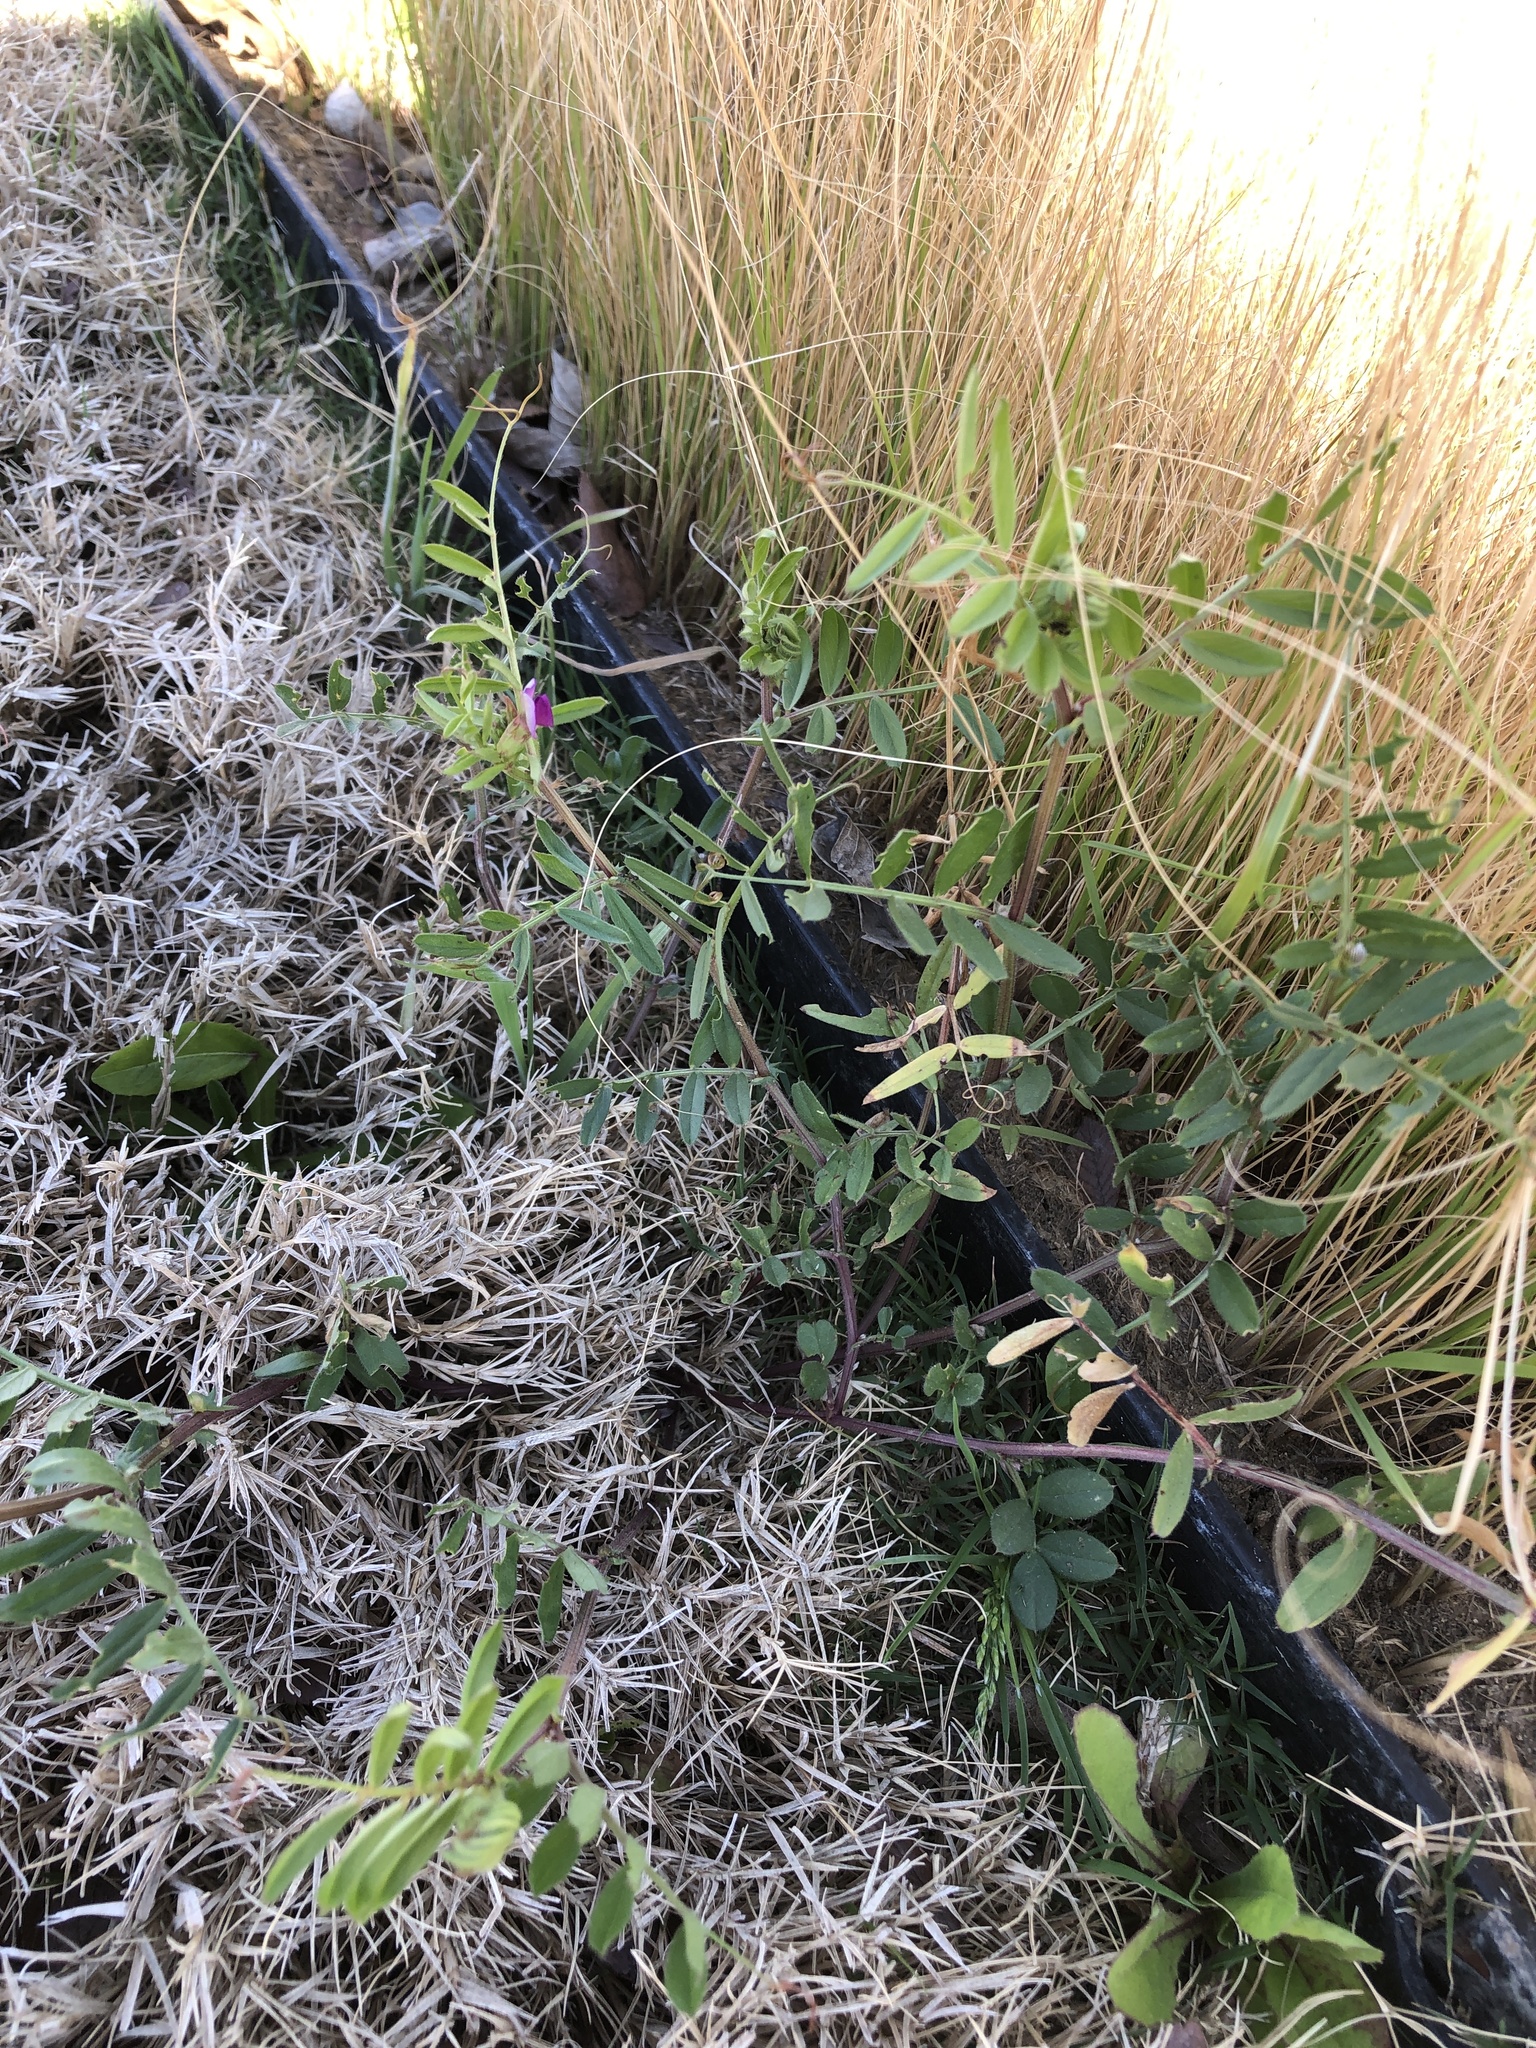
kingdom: Plantae
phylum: Tracheophyta
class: Magnoliopsida
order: Fabales
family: Fabaceae
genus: Vicia
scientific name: Vicia sativa
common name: Garden vetch
